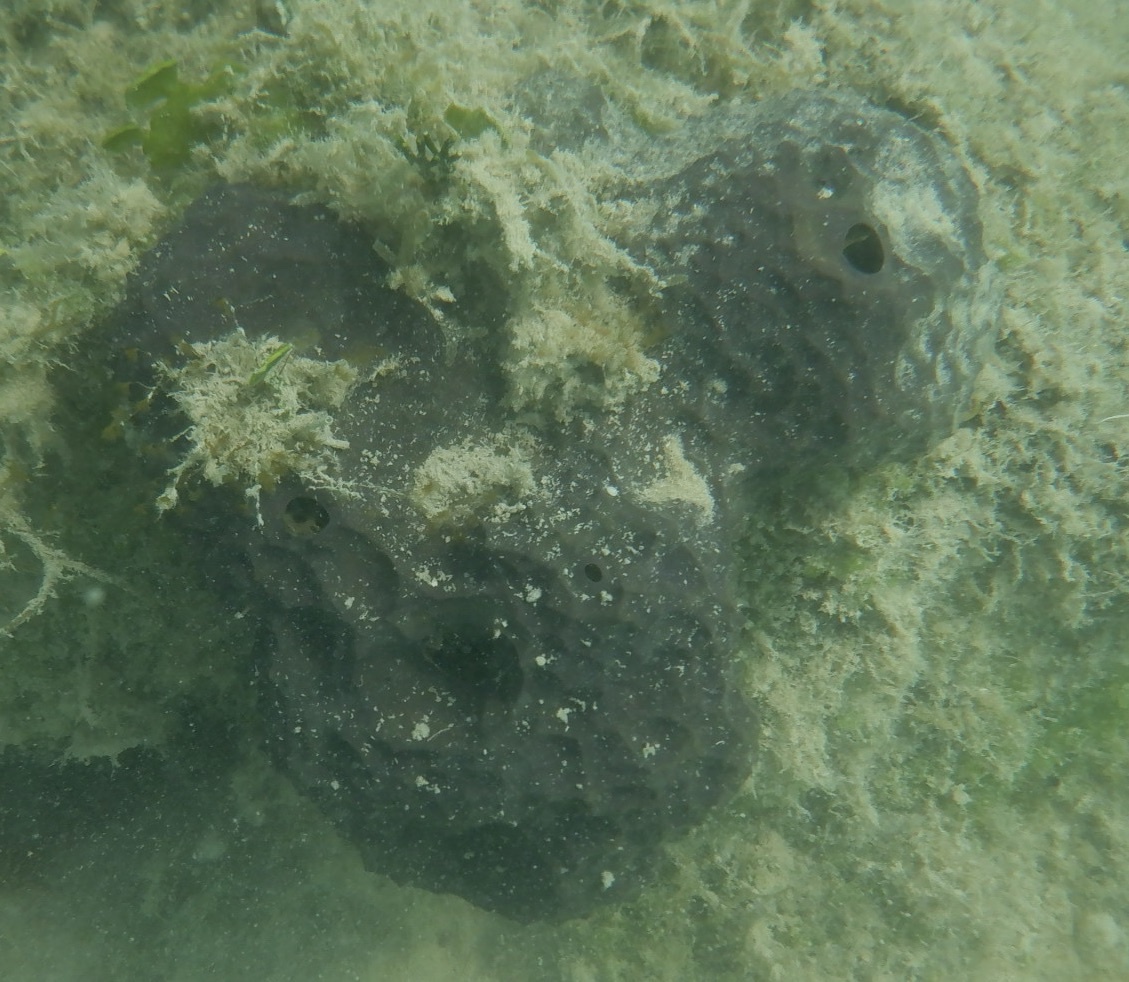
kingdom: Animalia
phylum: Porifera
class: Demospongiae
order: Verongiida
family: Aplysinidae
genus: Aiolochroia
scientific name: Aiolochroia crassa
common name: Branching tube sponge
